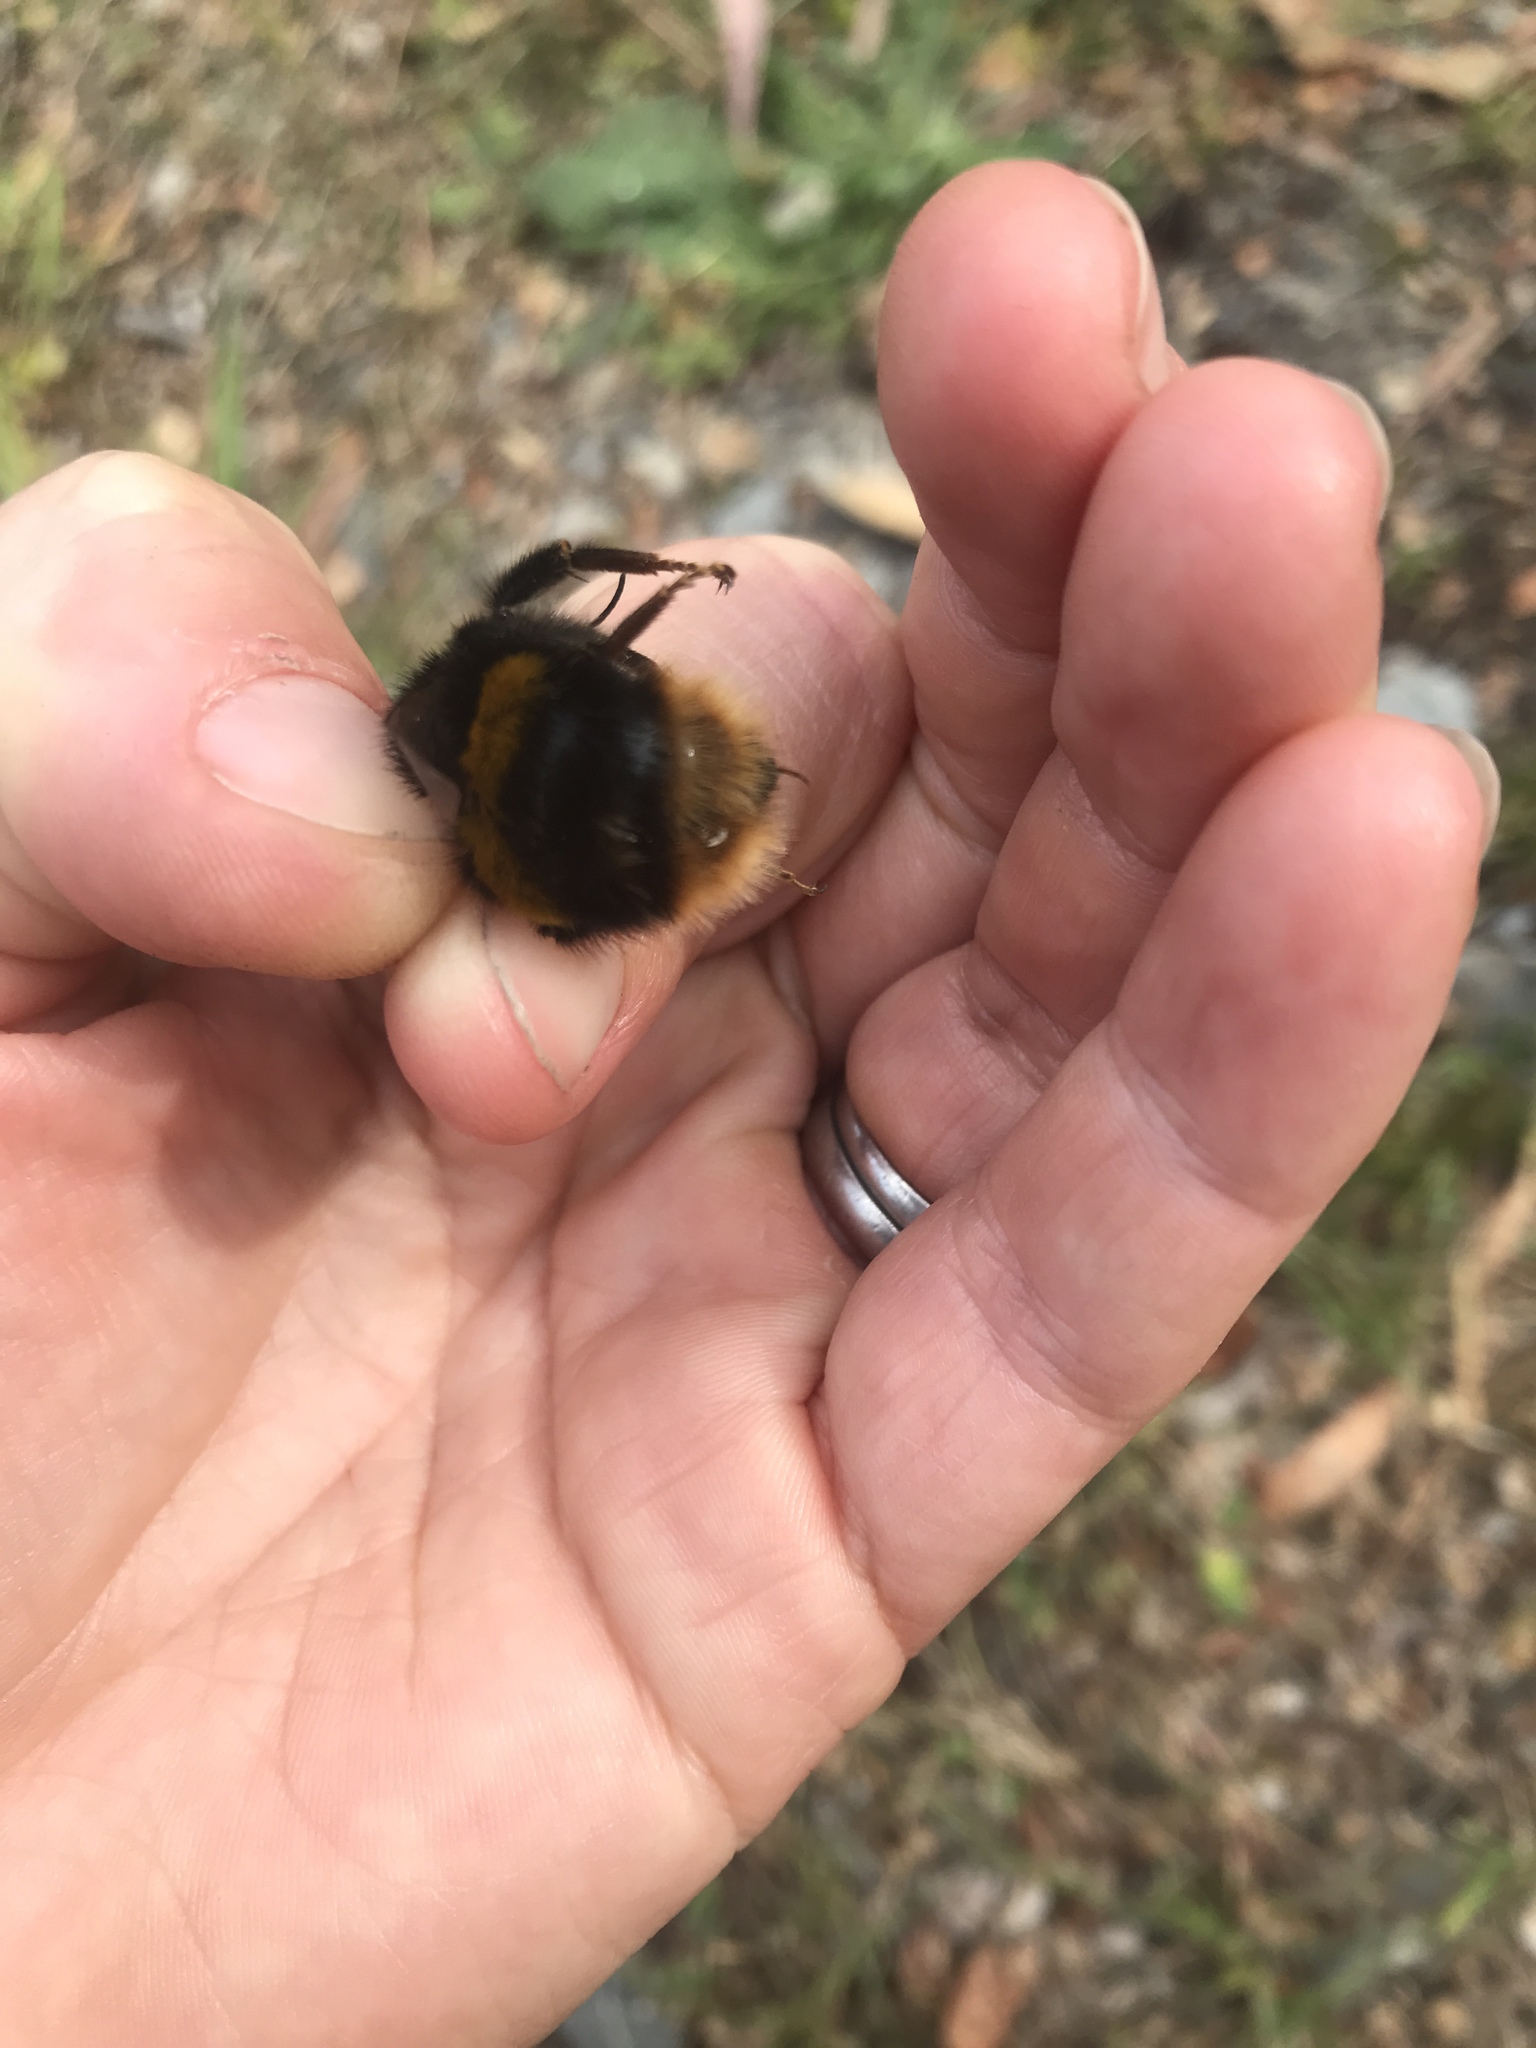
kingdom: Animalia
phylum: Arthropoda
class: Insecta
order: Hymenoptera
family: Apidae
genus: Bombus
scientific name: Bombus terrestris
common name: Buff-tailed bumblebee
